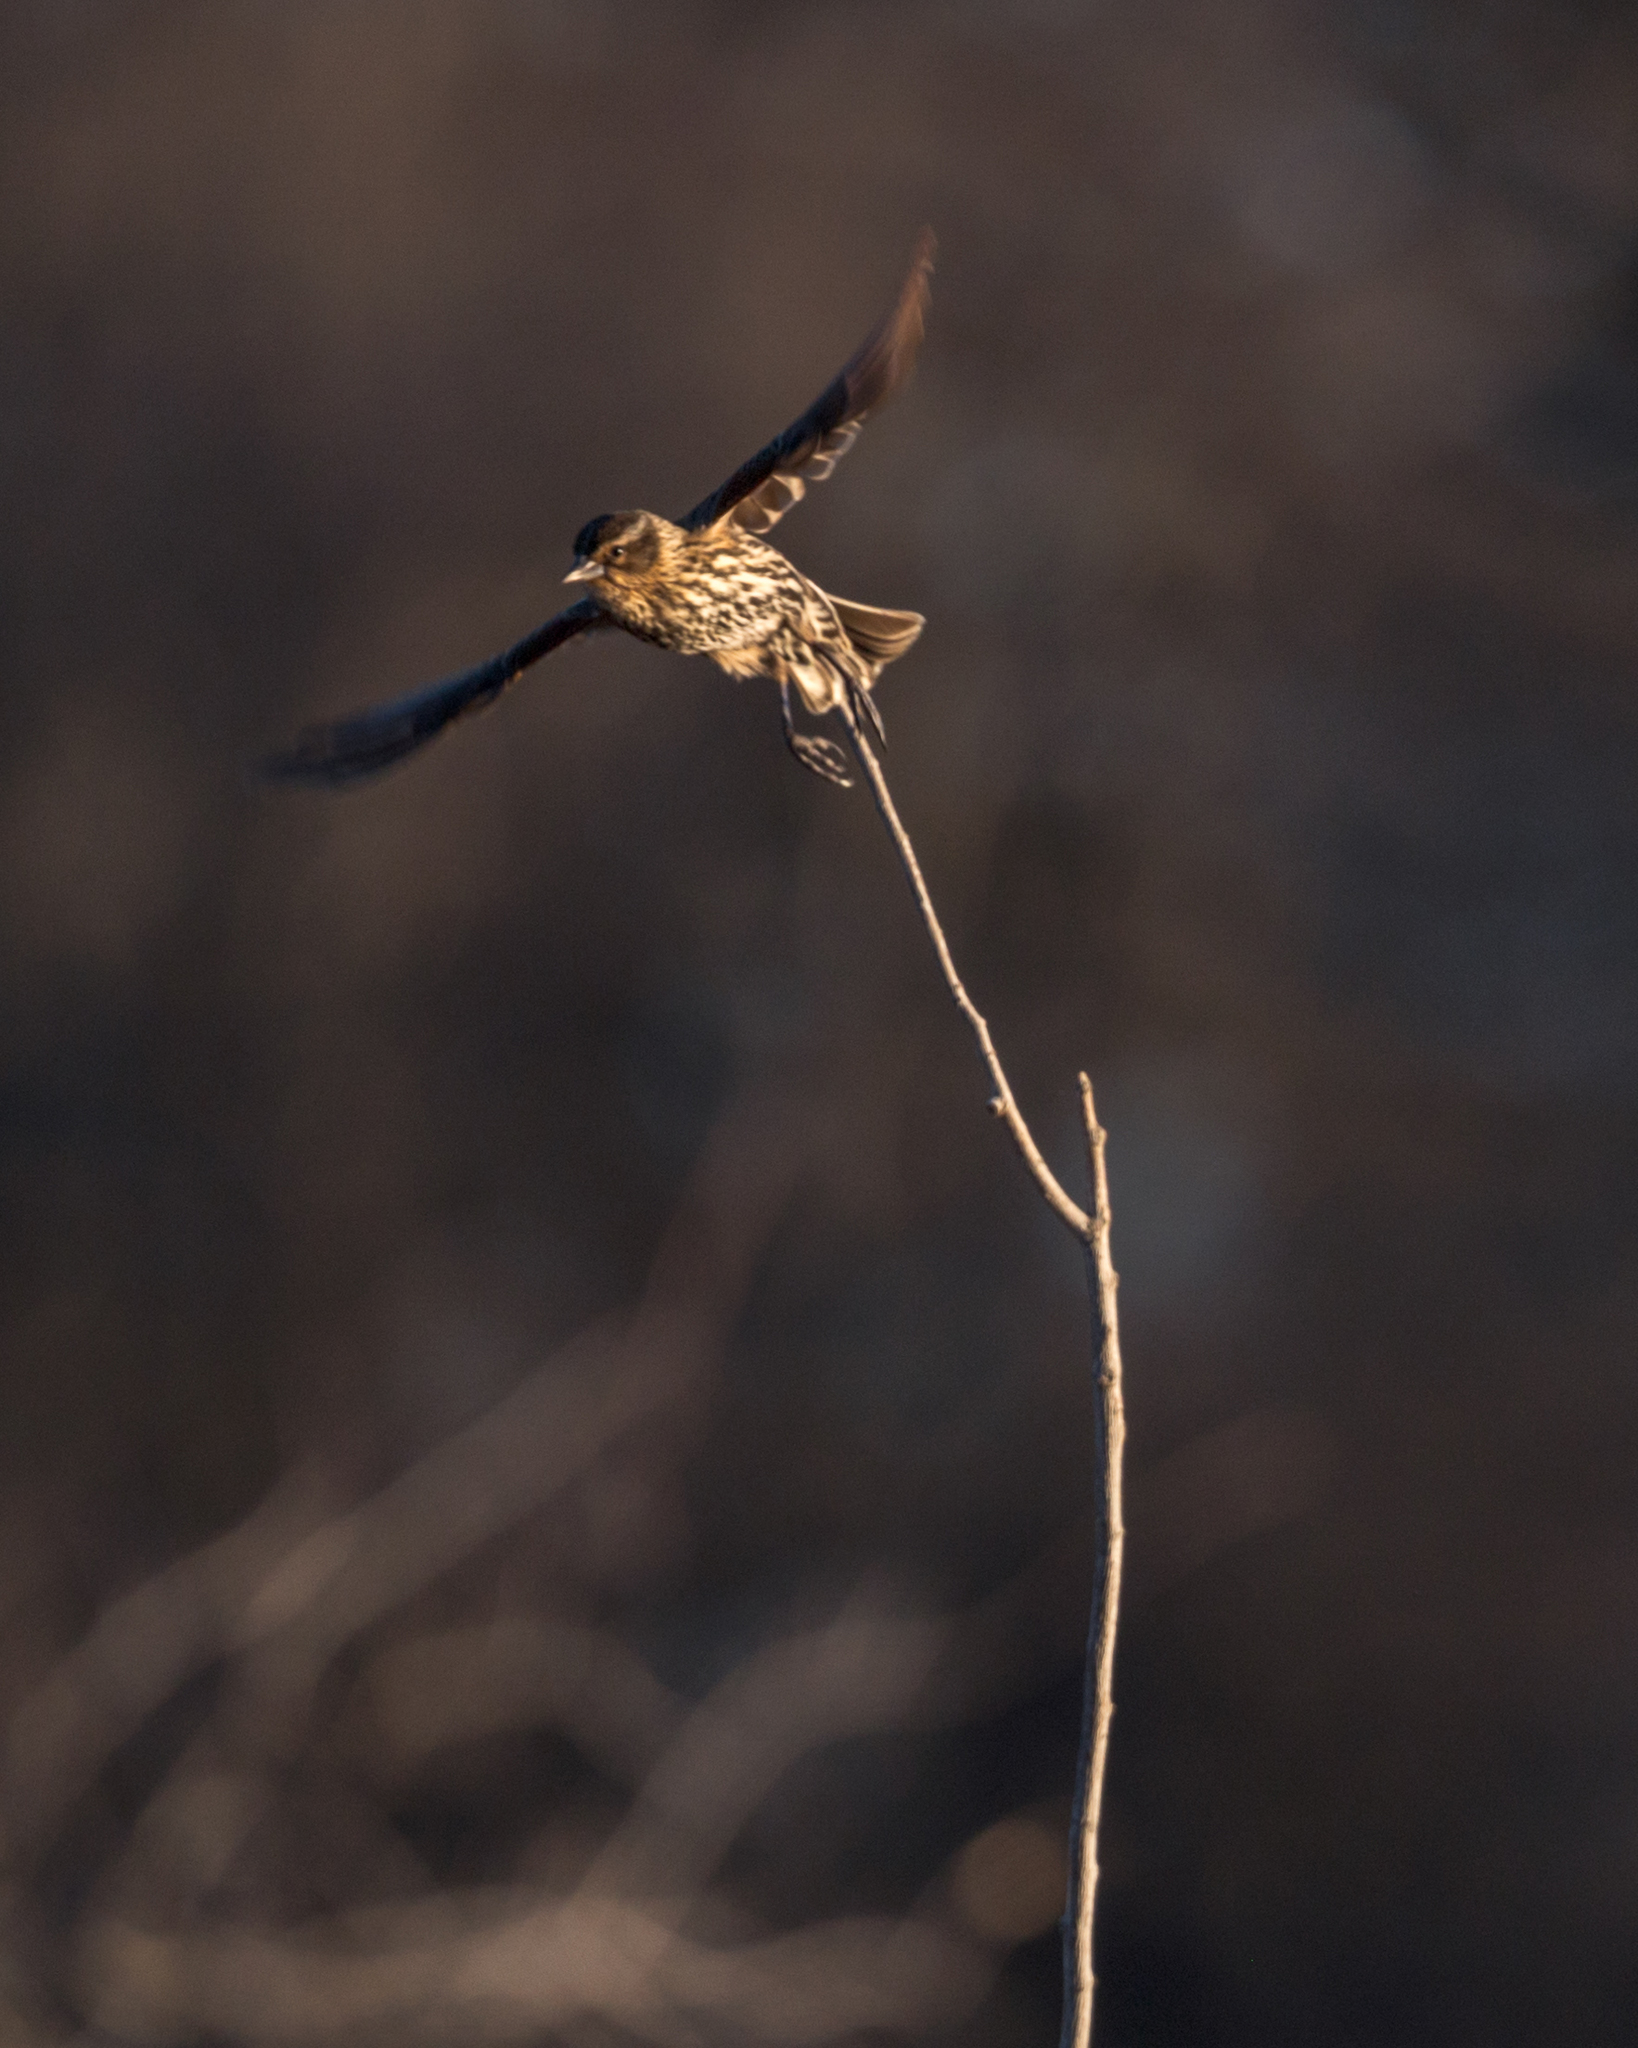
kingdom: Animalia
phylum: Chordata
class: Aves
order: Passeriformes
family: Icteridae
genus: Agelaius
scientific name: Agelaius phoeniceus
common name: Red-winged blackbird
